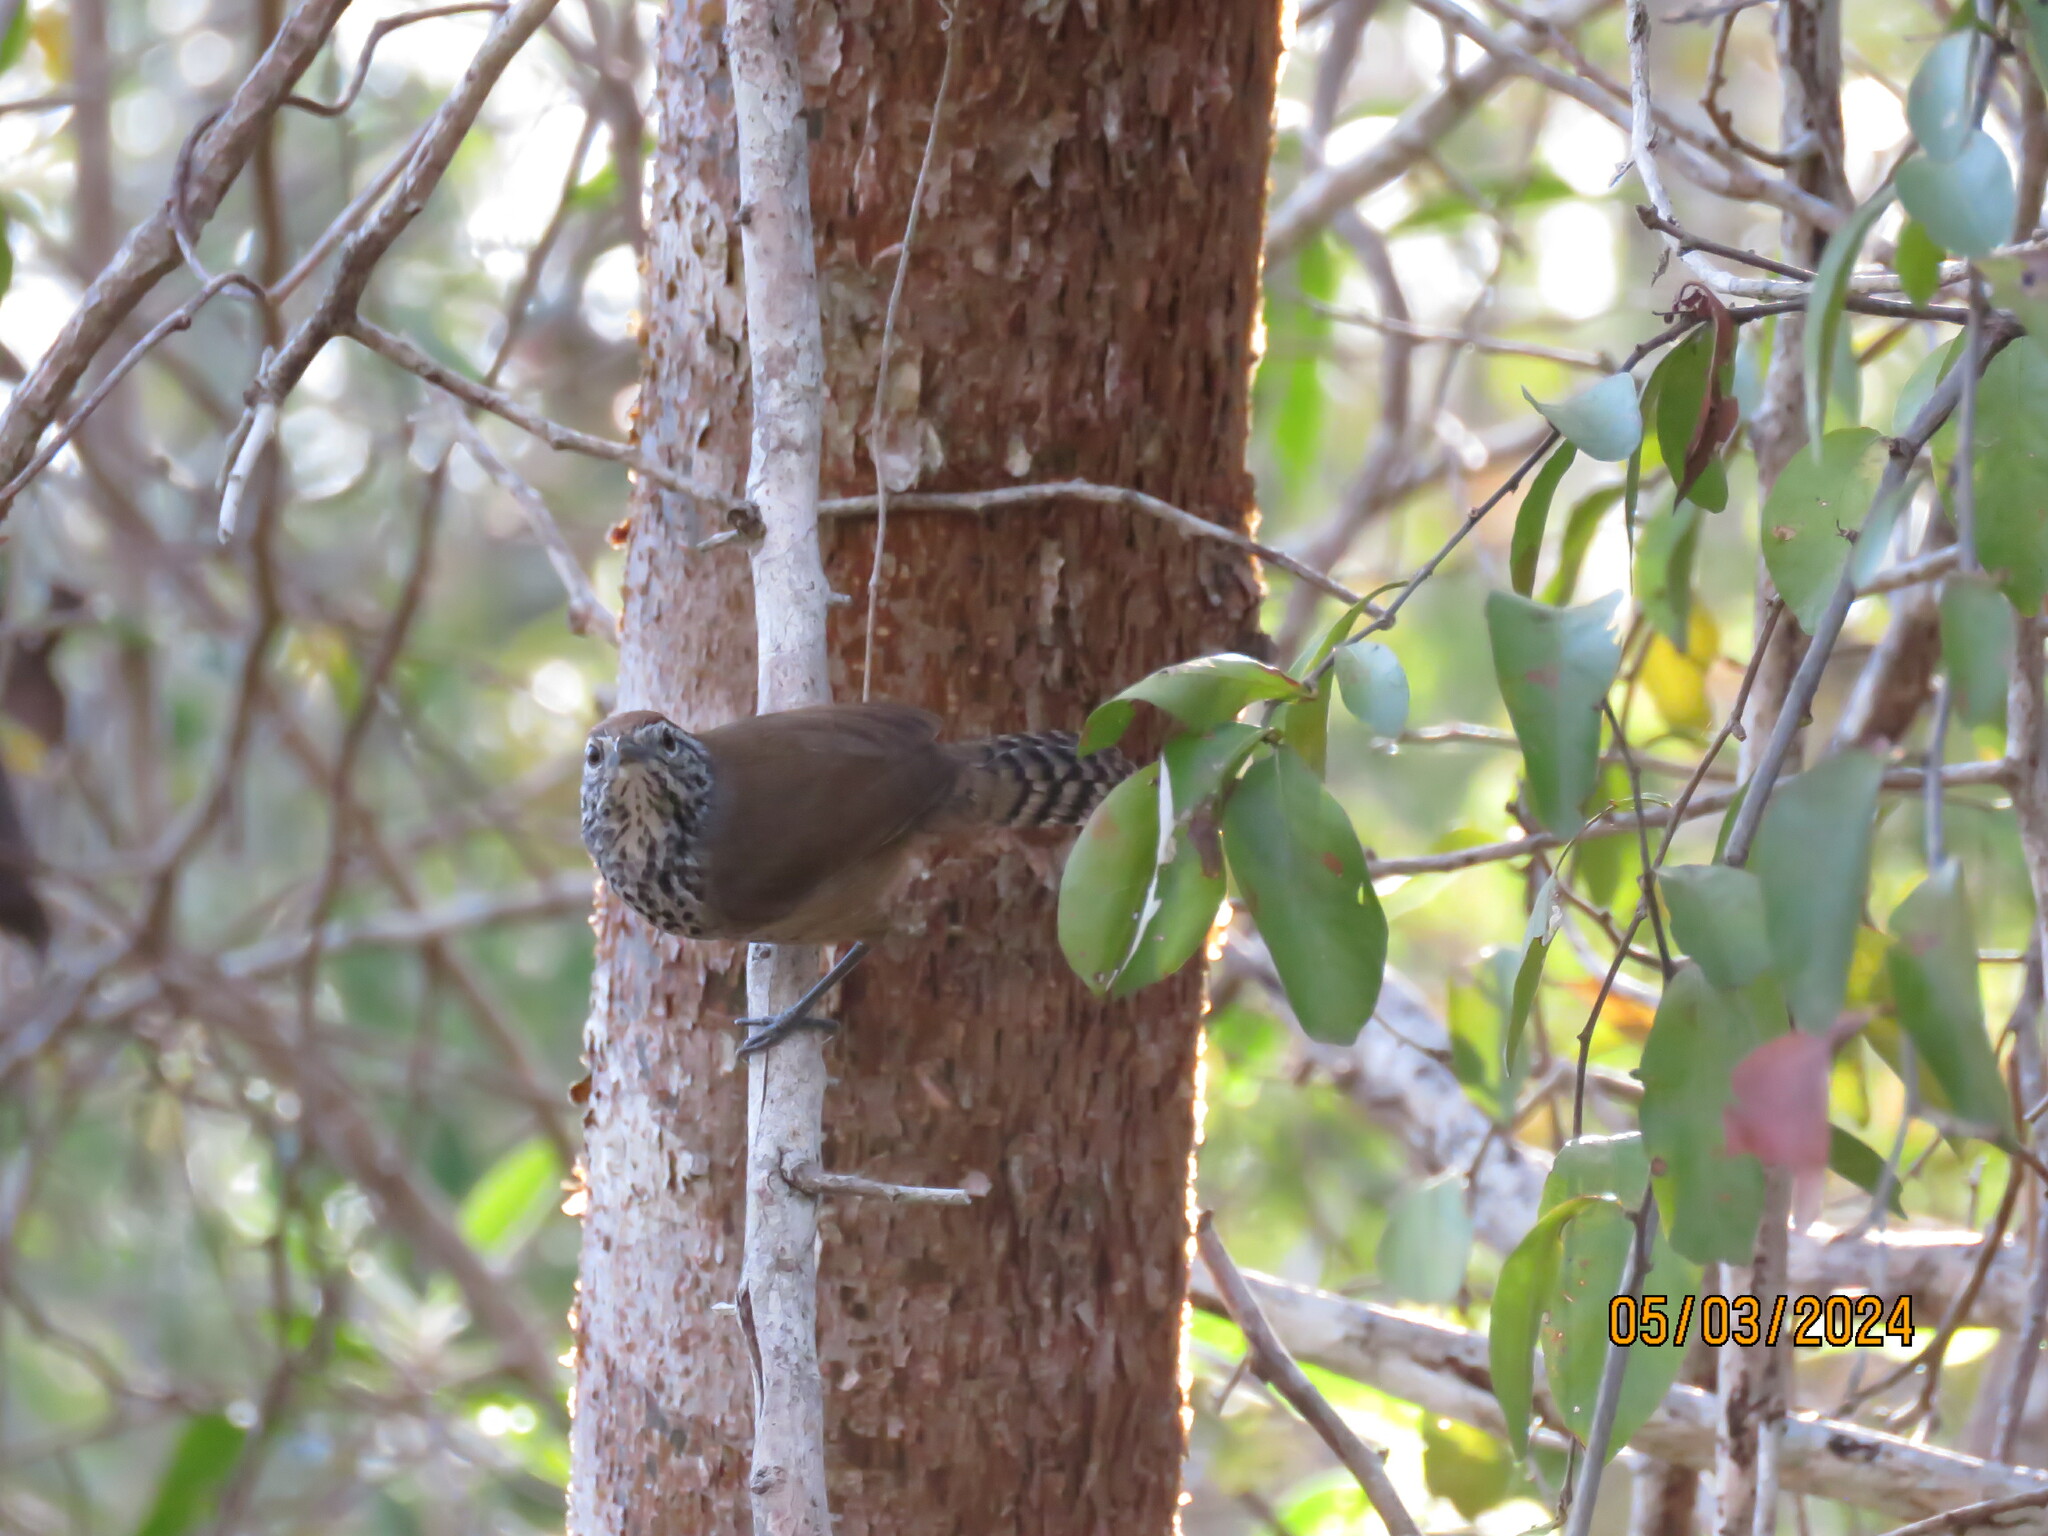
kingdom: Animalia
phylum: Chordata
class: Aves
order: Passeriformes
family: Troglodytidae
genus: Pheugopedius
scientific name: Pheugopedius maculipectus
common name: Spot-breasted wren
